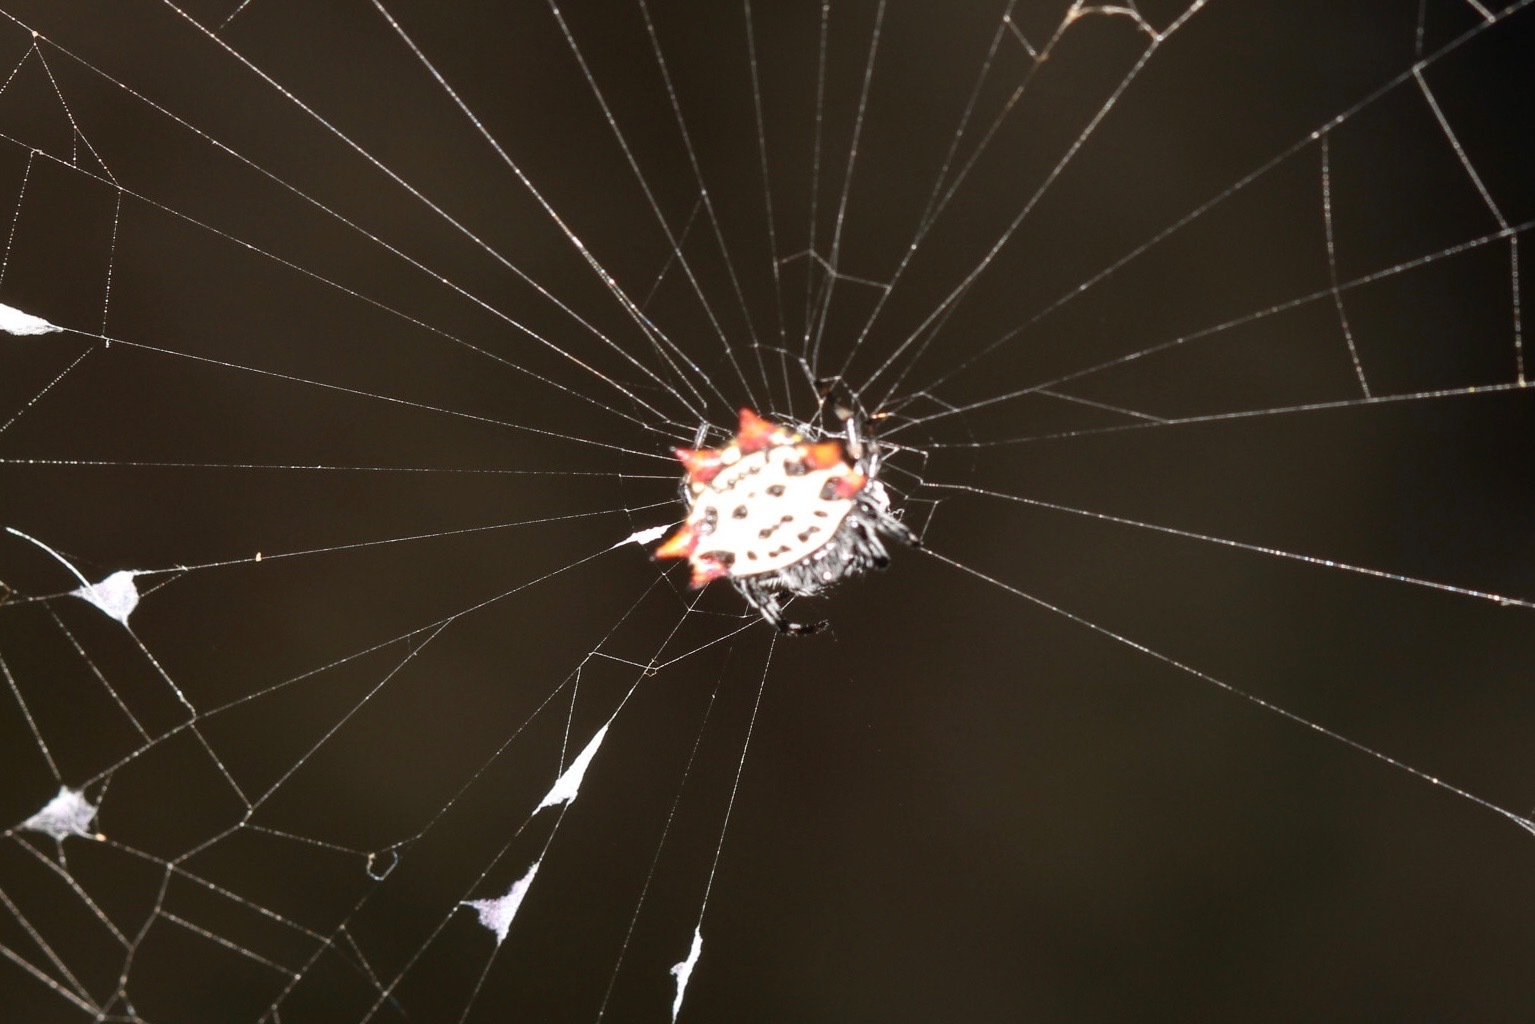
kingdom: Animalia
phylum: Arthropoda
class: Arachnida
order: Araneae
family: Araneidae
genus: Gasteracantha
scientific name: Gasteracantha cancriformis
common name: Orb weavers
